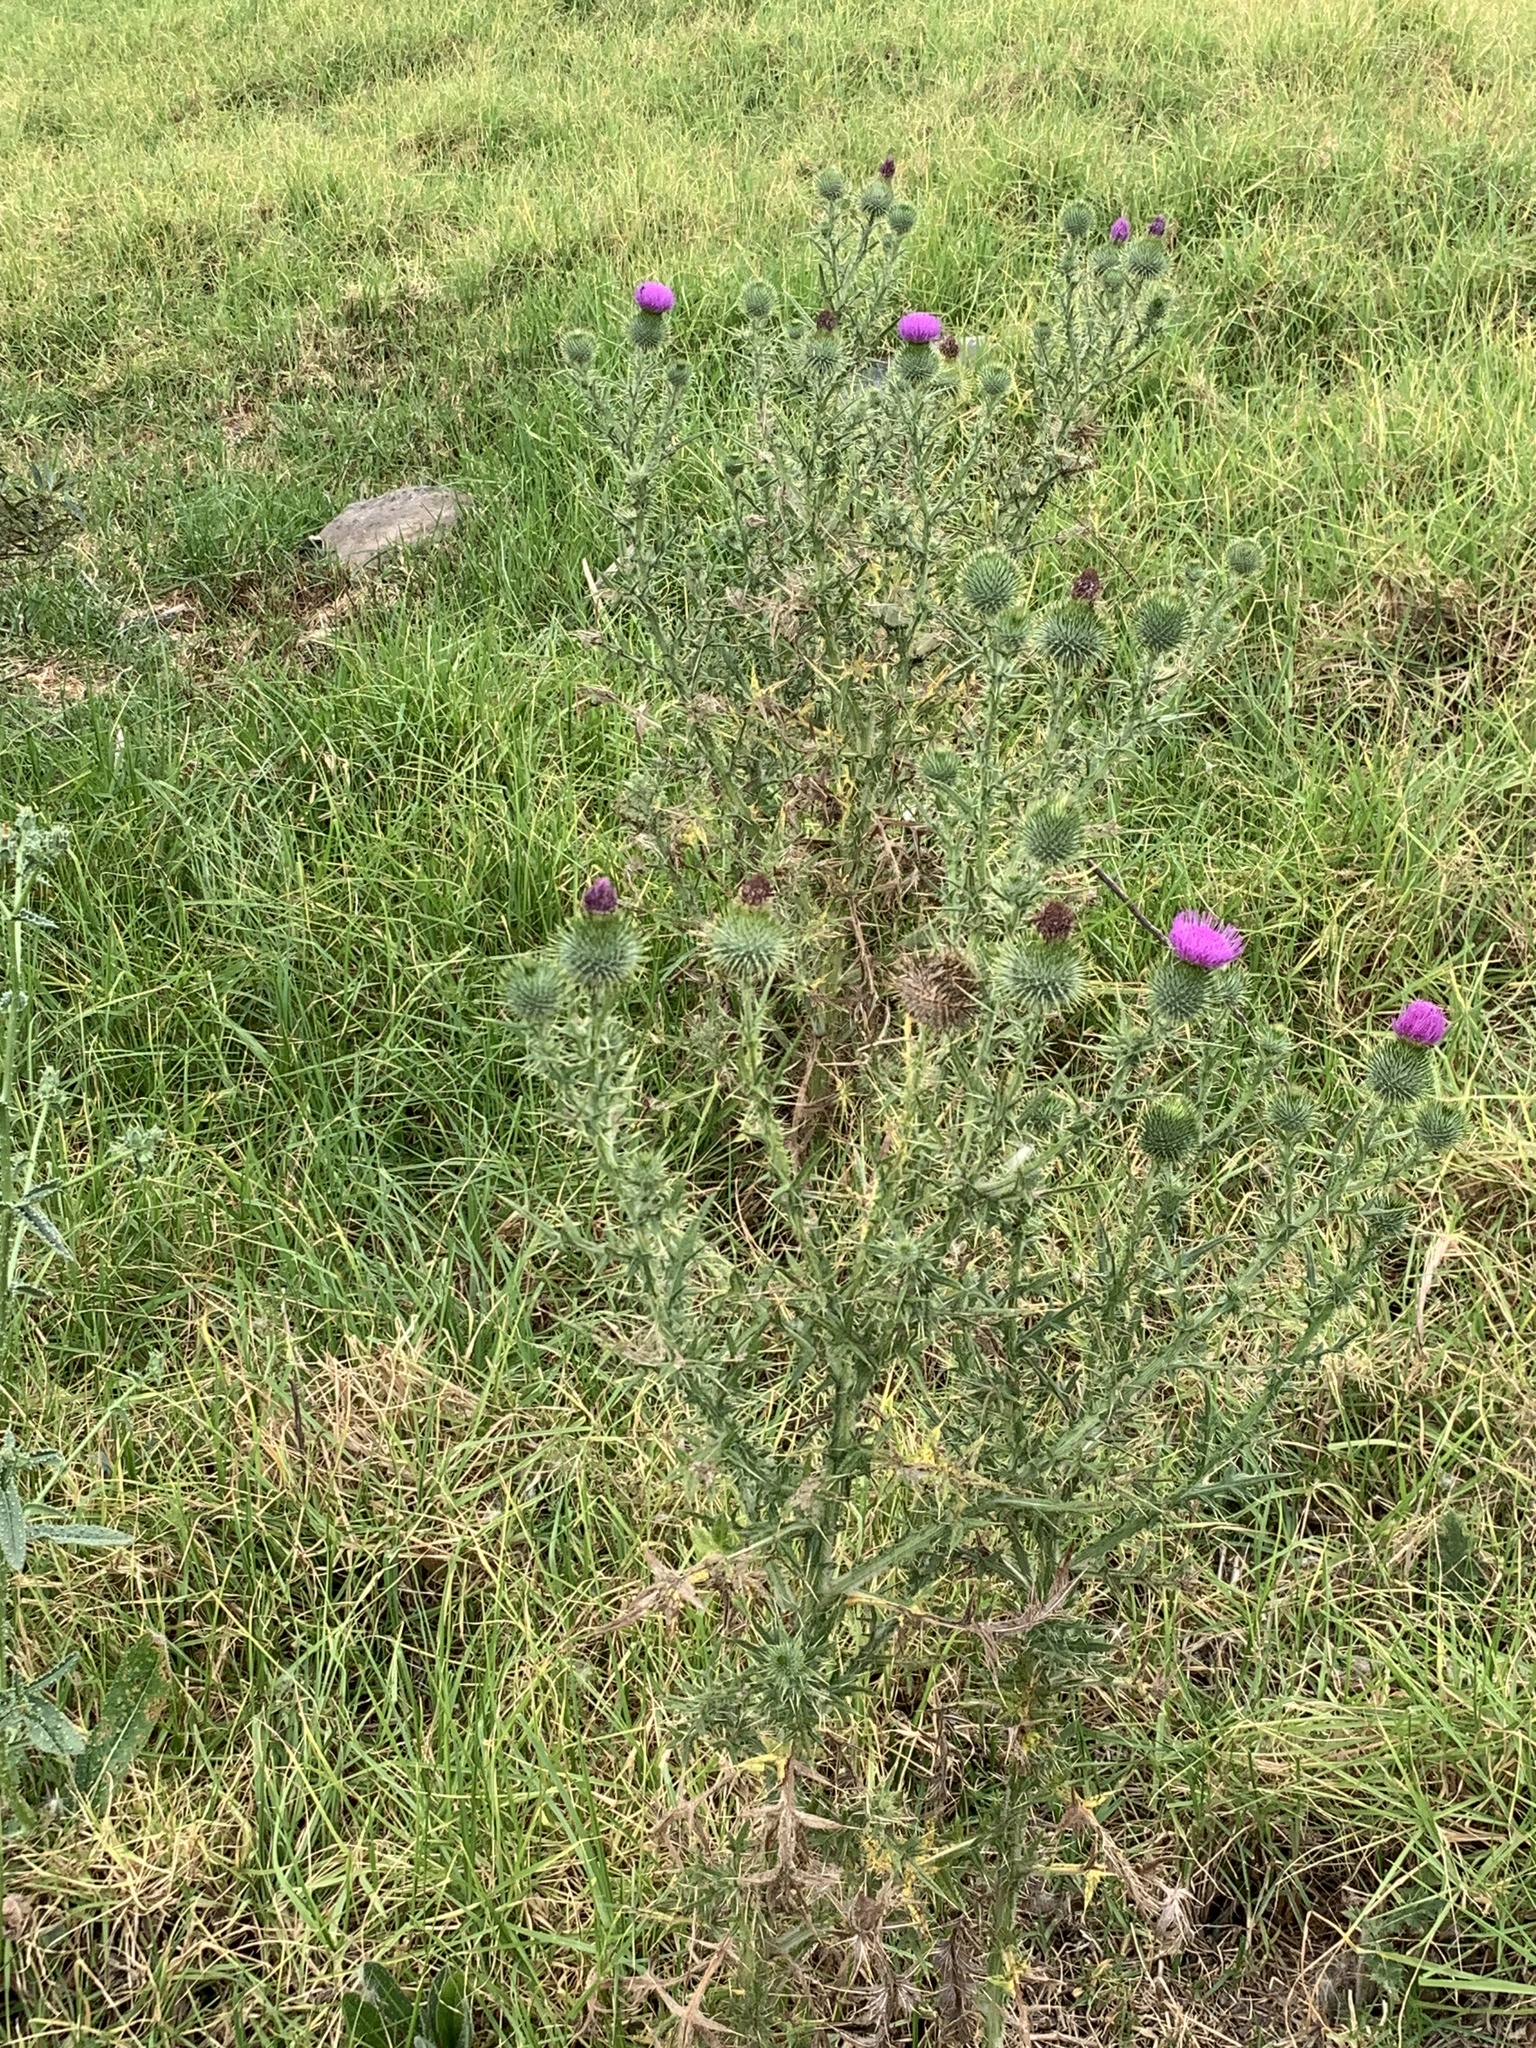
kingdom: Plantae
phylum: Tracheophyta
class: Magnoliopsida
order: Asterales
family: Asteraceae
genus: Cirsium
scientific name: Cirsium vulgare
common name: Bull thistle
